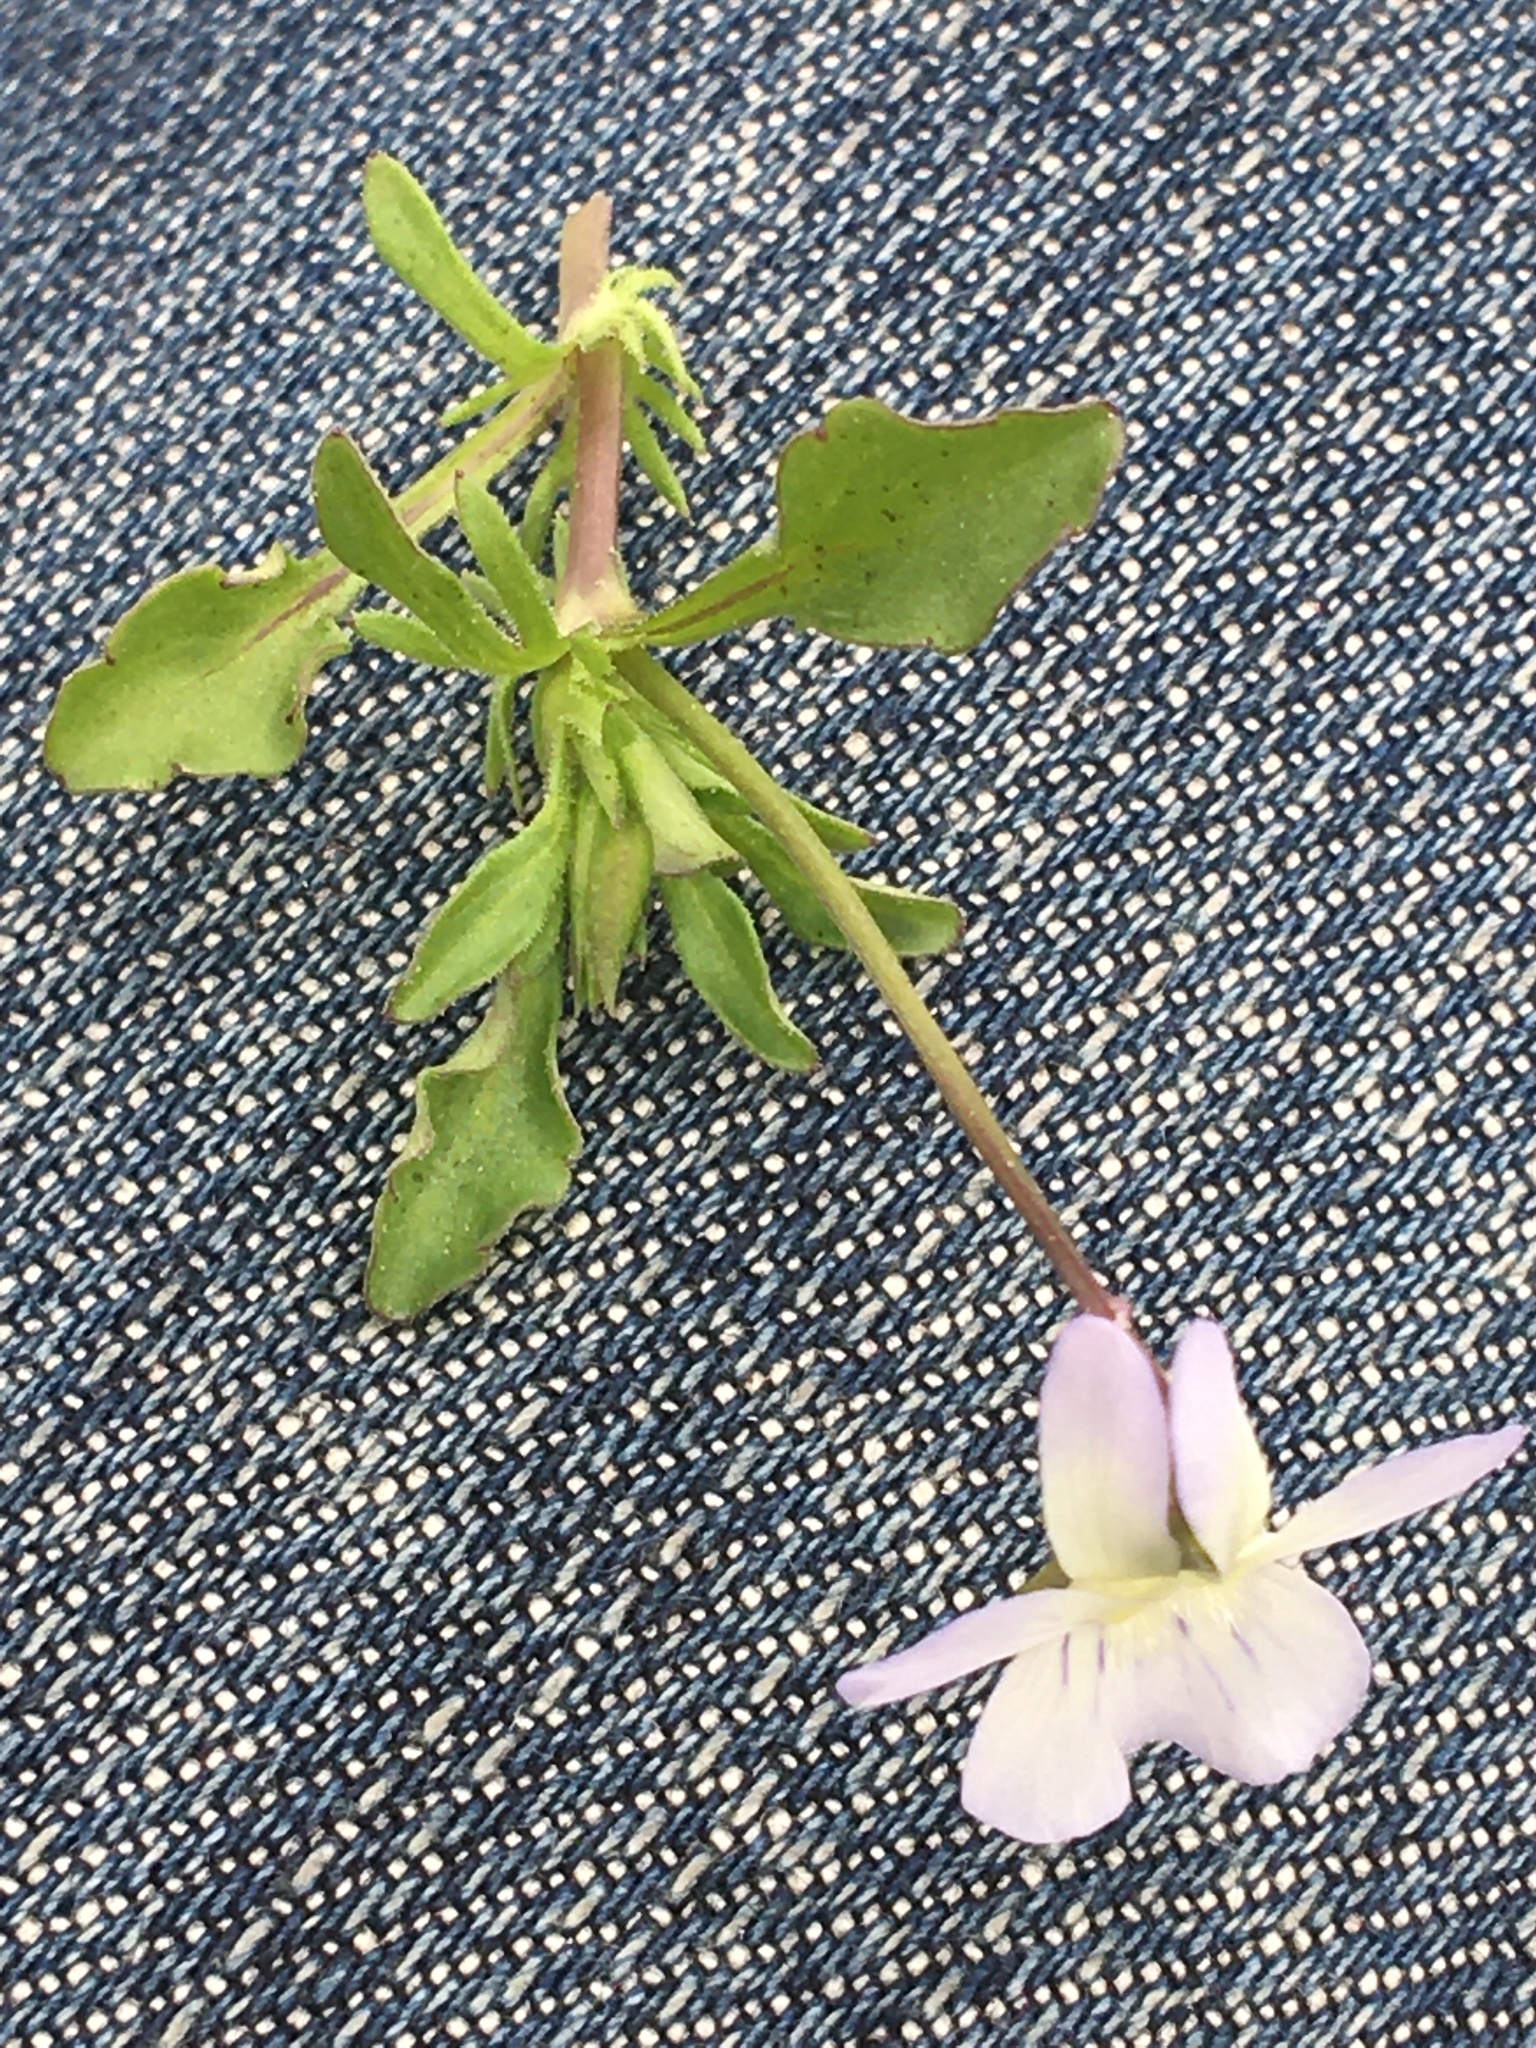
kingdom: Plantae
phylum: Tracheophyta
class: Magnoliopsida
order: Malpighiales
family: Violaceae
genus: Viola
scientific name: Viola rafinesquei
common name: American field pansy
